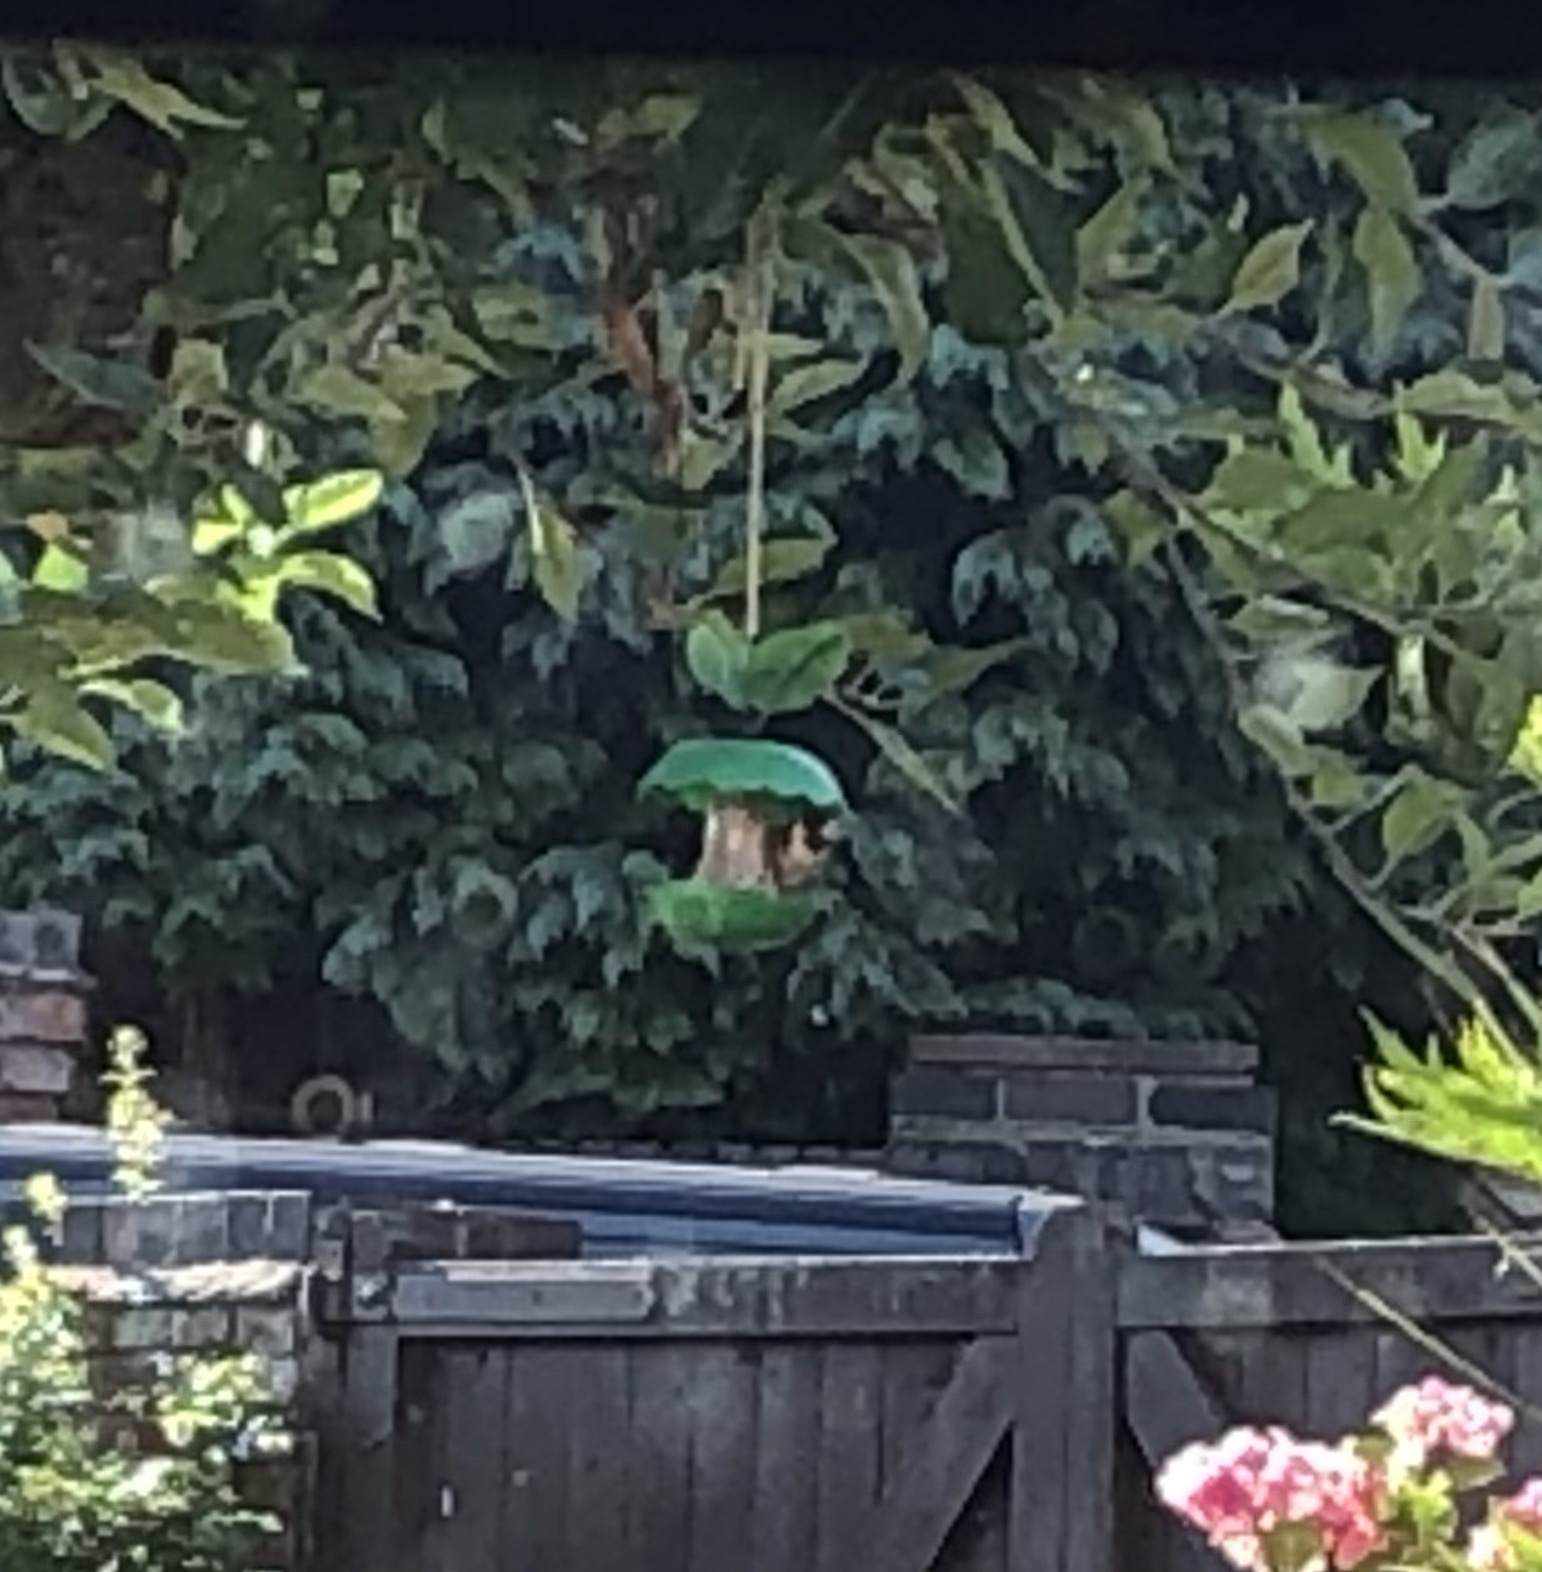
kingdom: Animalia
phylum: Chordata
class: Aves
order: Passeriformes
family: Fringillidae
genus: Carduelis
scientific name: Carduelis carduelis
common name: European goldfinch
